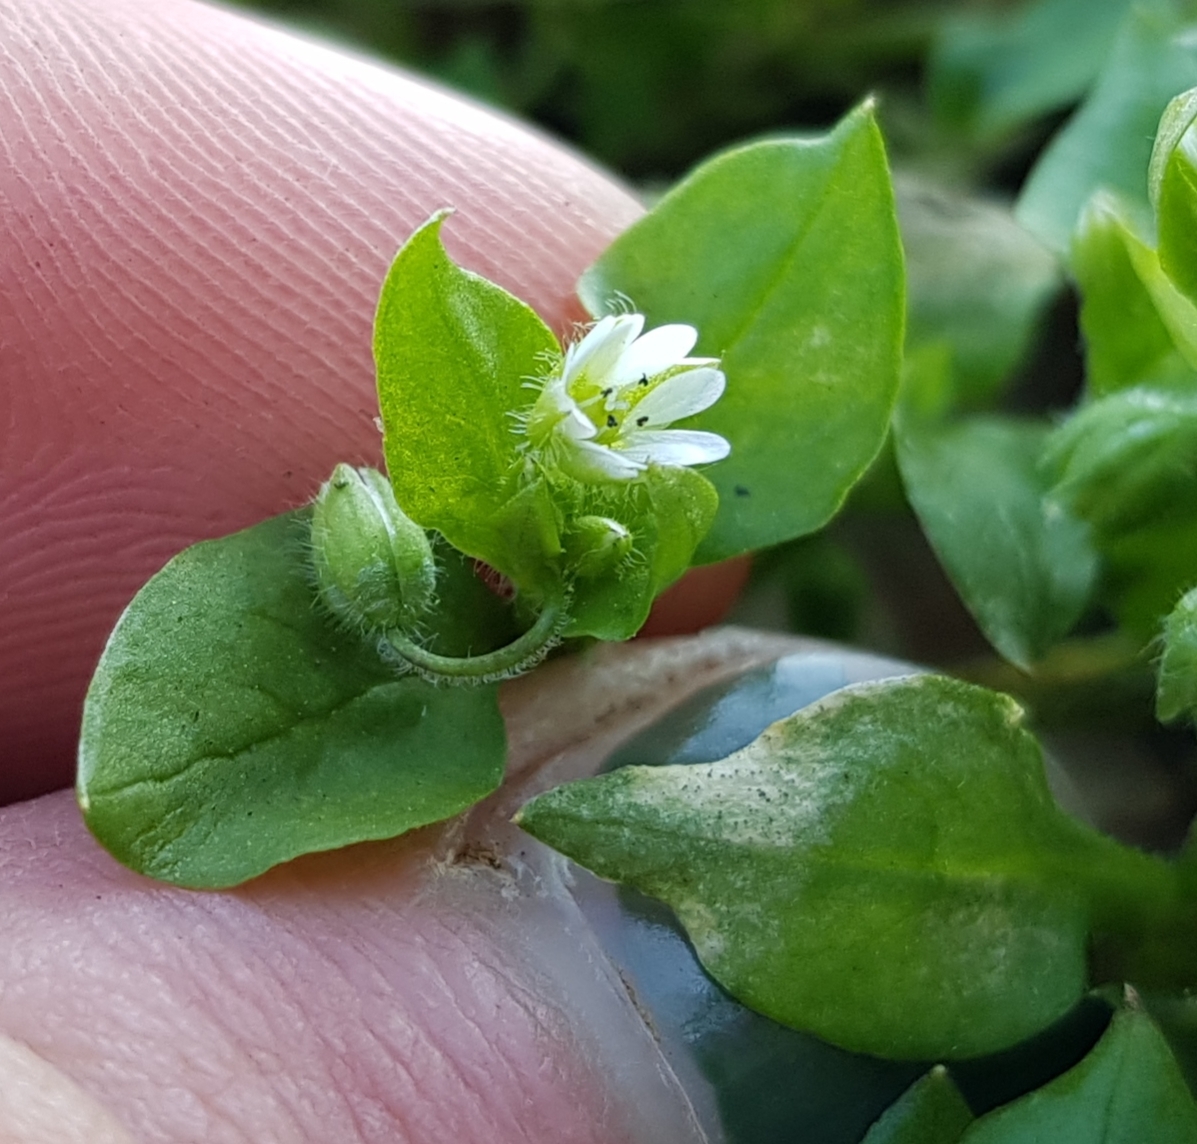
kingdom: Plantae
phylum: Tracheophyta
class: Magnoliopsida
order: Caryophyllales
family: Caryophyllaceae
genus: Stellaria
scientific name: Stellaria media
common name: Common chickweed
